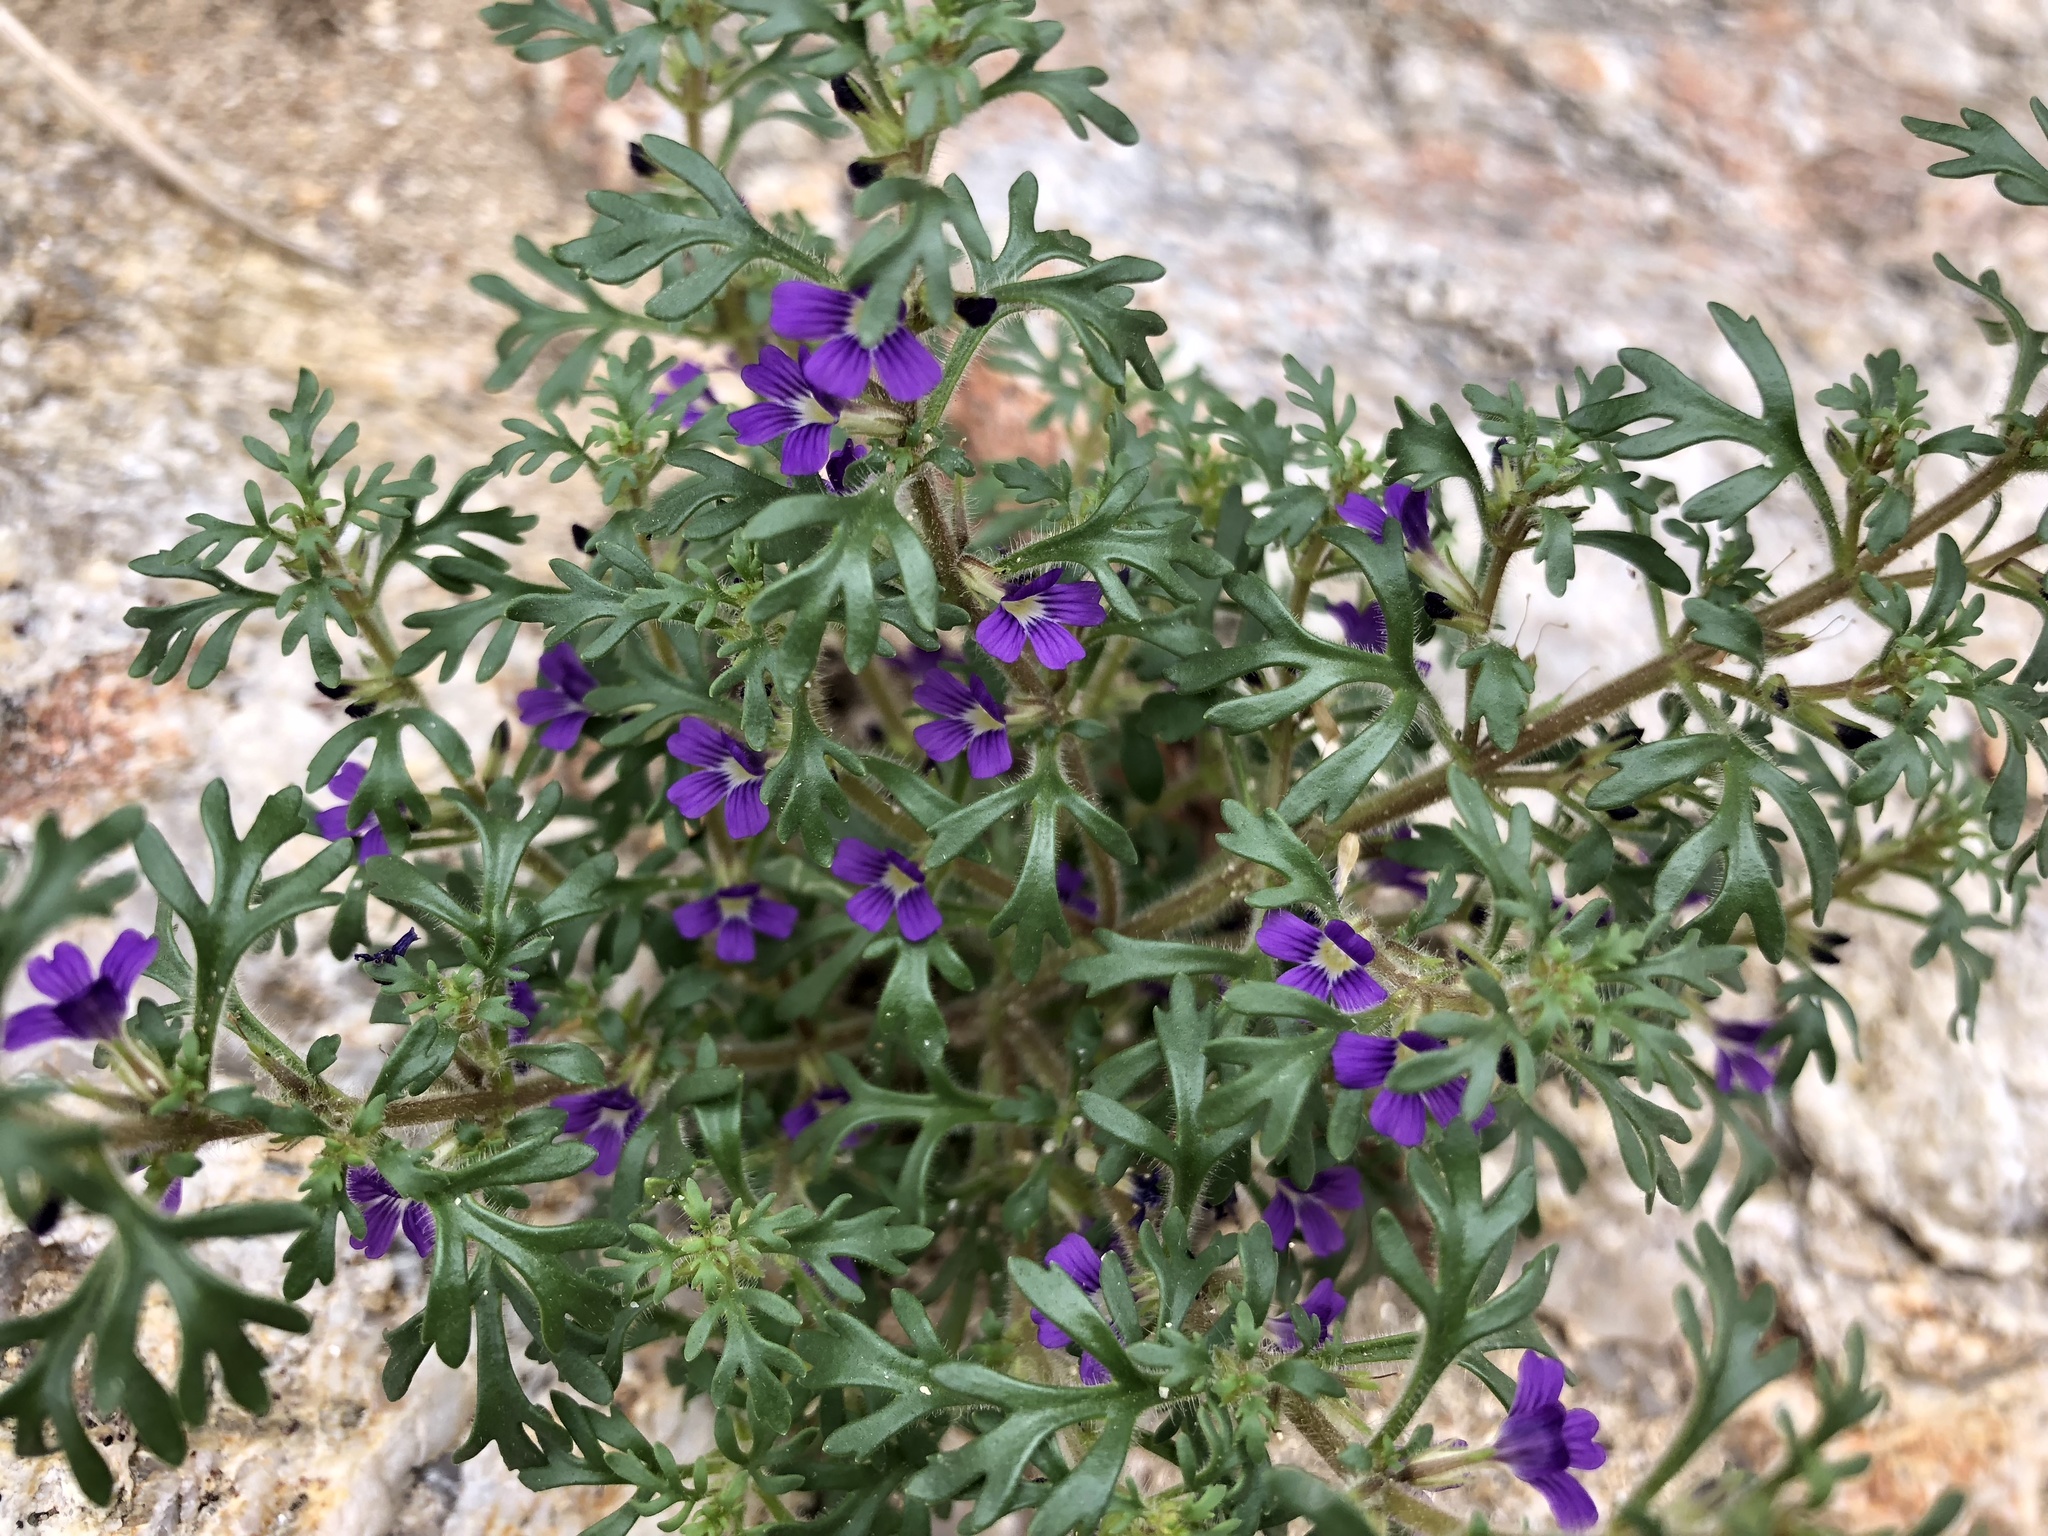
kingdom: Plantae
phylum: Tracheophyta
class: Magnoliopsida
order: Lamiales
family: Plantaginaceae
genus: Schistophragma
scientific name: Schistophragma intermedium
